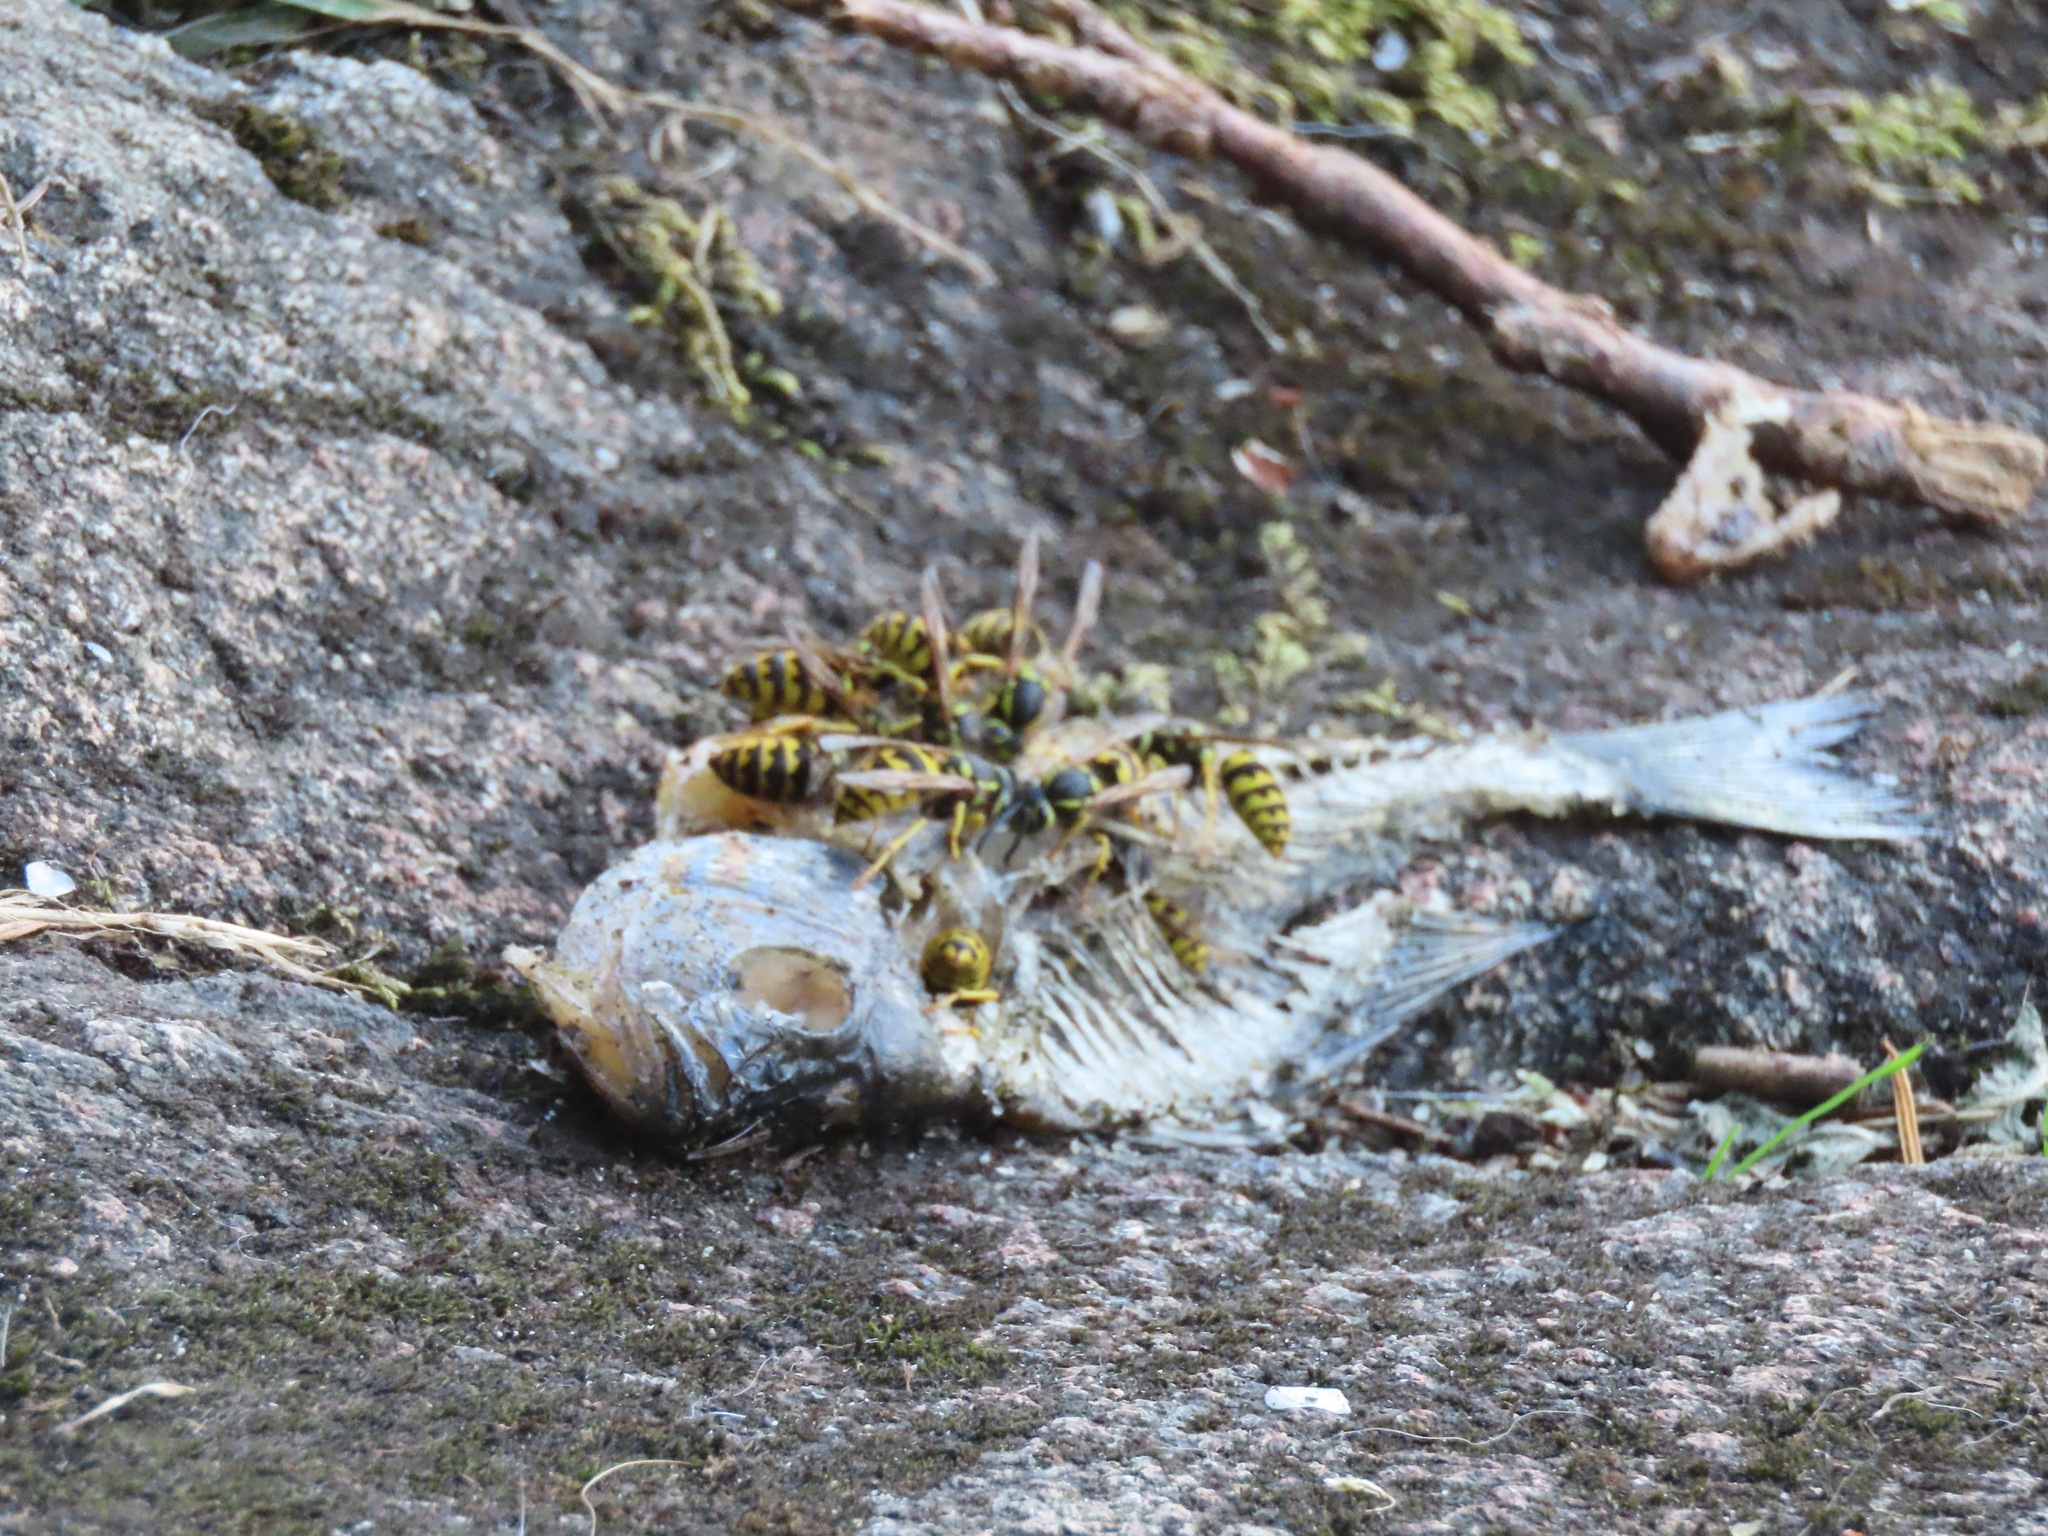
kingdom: Animalia
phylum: Arthropoda
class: Insecta
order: Hymenoptera
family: Vespidae
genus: Vespula
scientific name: Vespula pensylvanica
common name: Western yellowjacket
